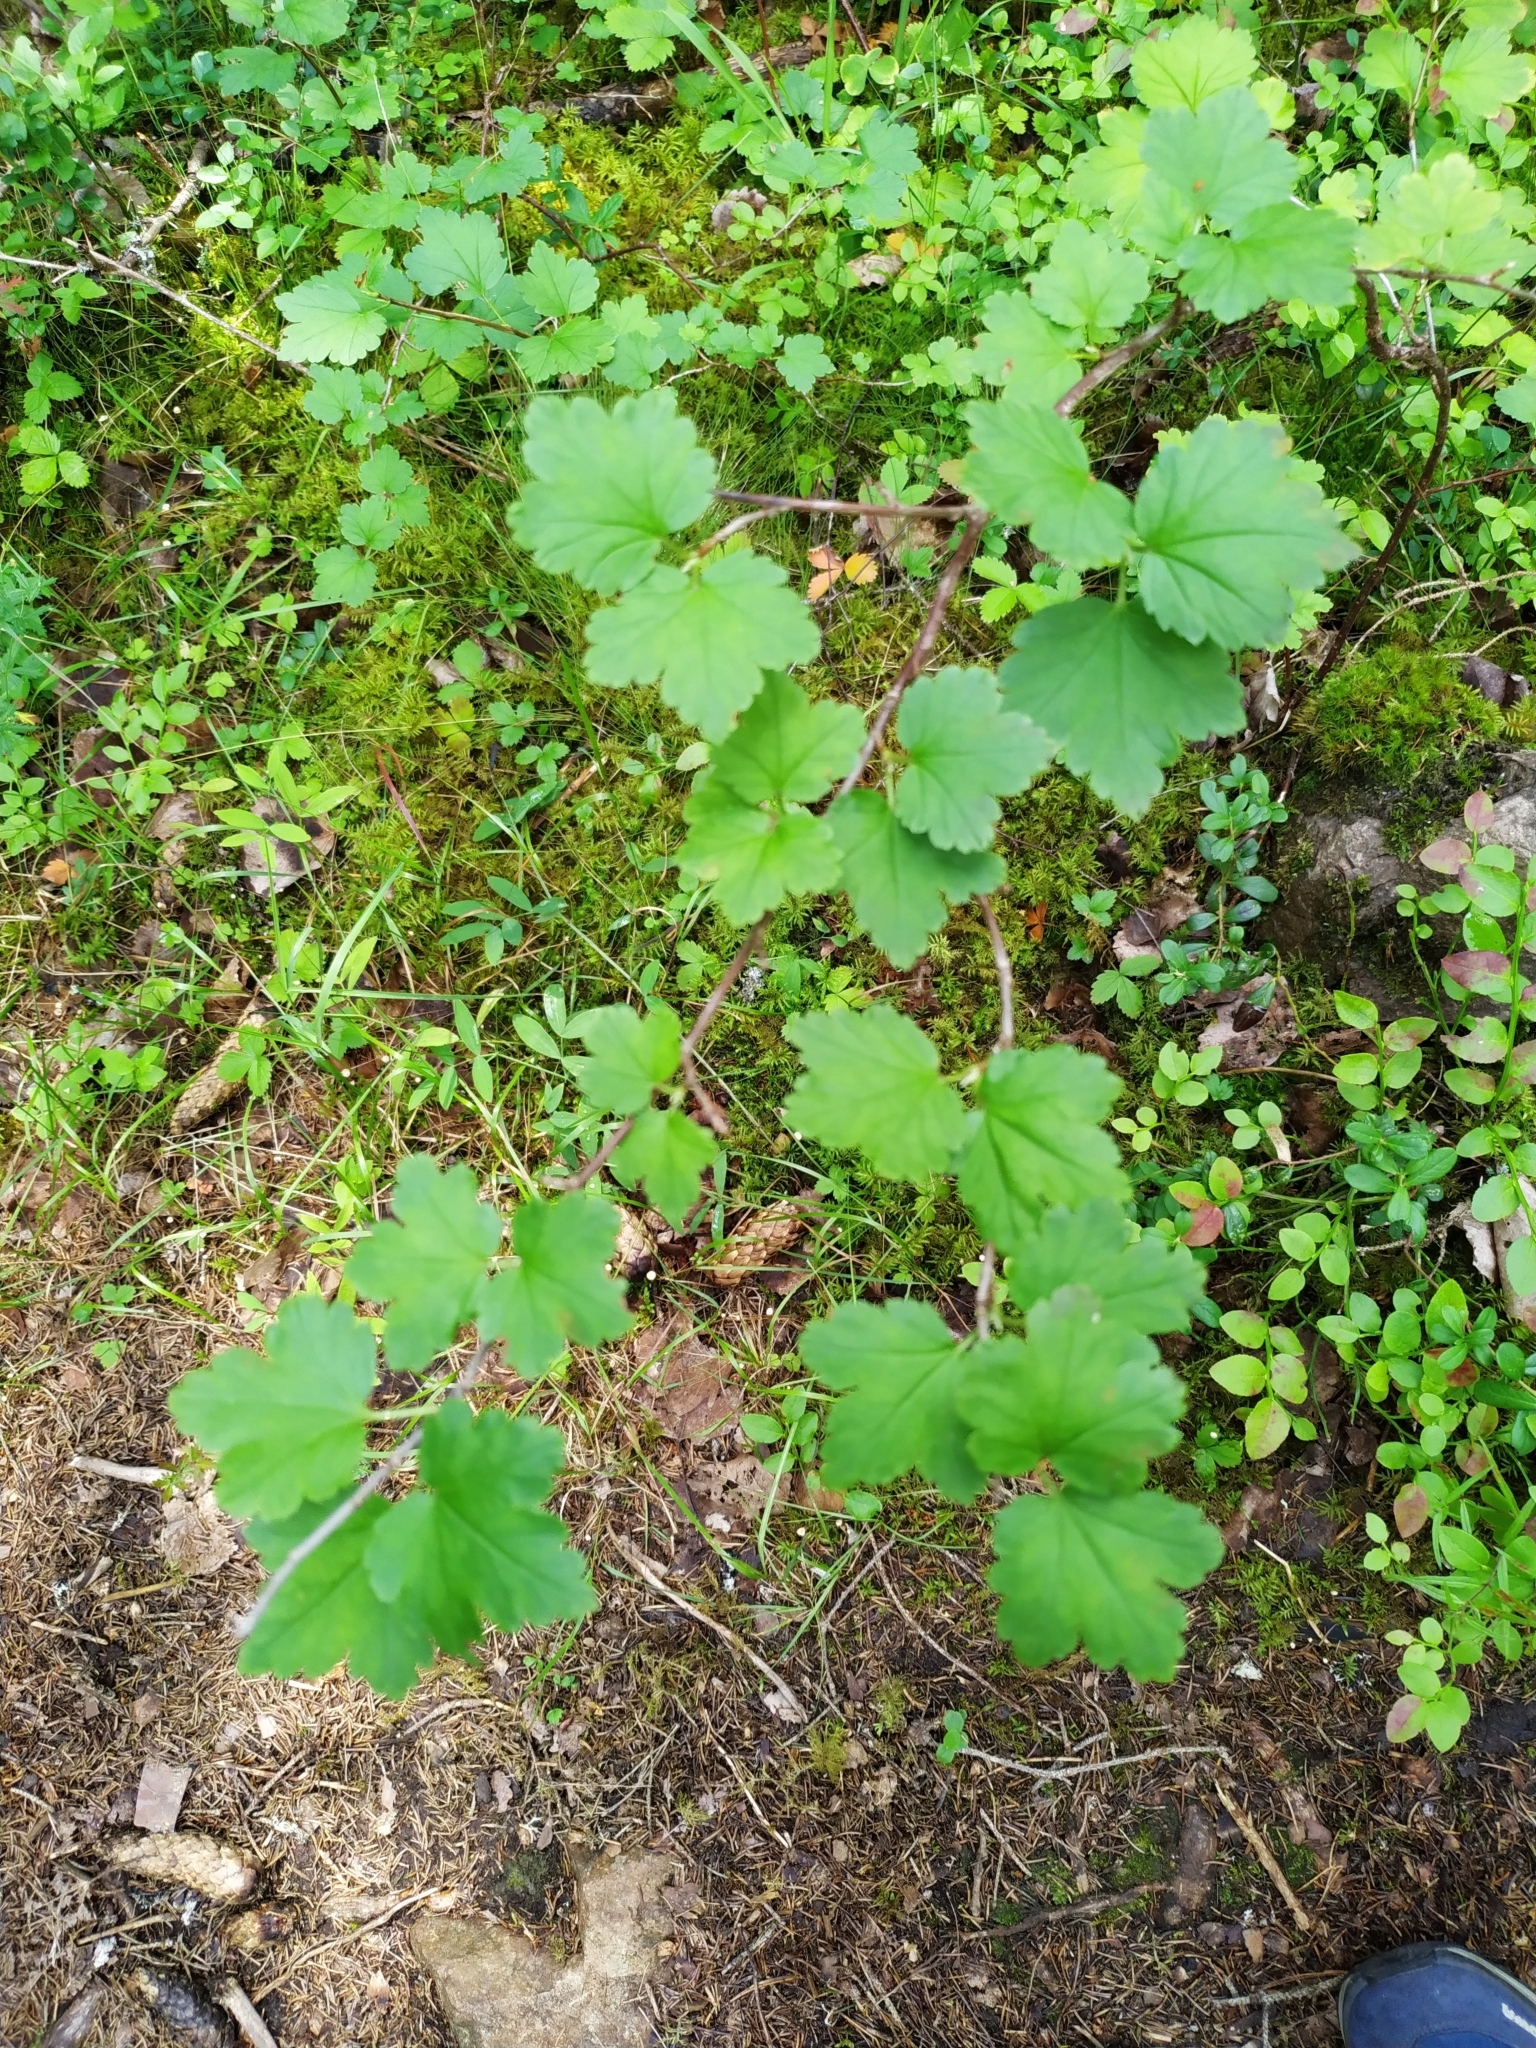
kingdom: Plantae
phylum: Tracheophyta
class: Magnoliopsida
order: Saxifragales
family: Grossulariaceae
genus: Ribes
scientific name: Ribes alpinum
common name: Alpine currant
